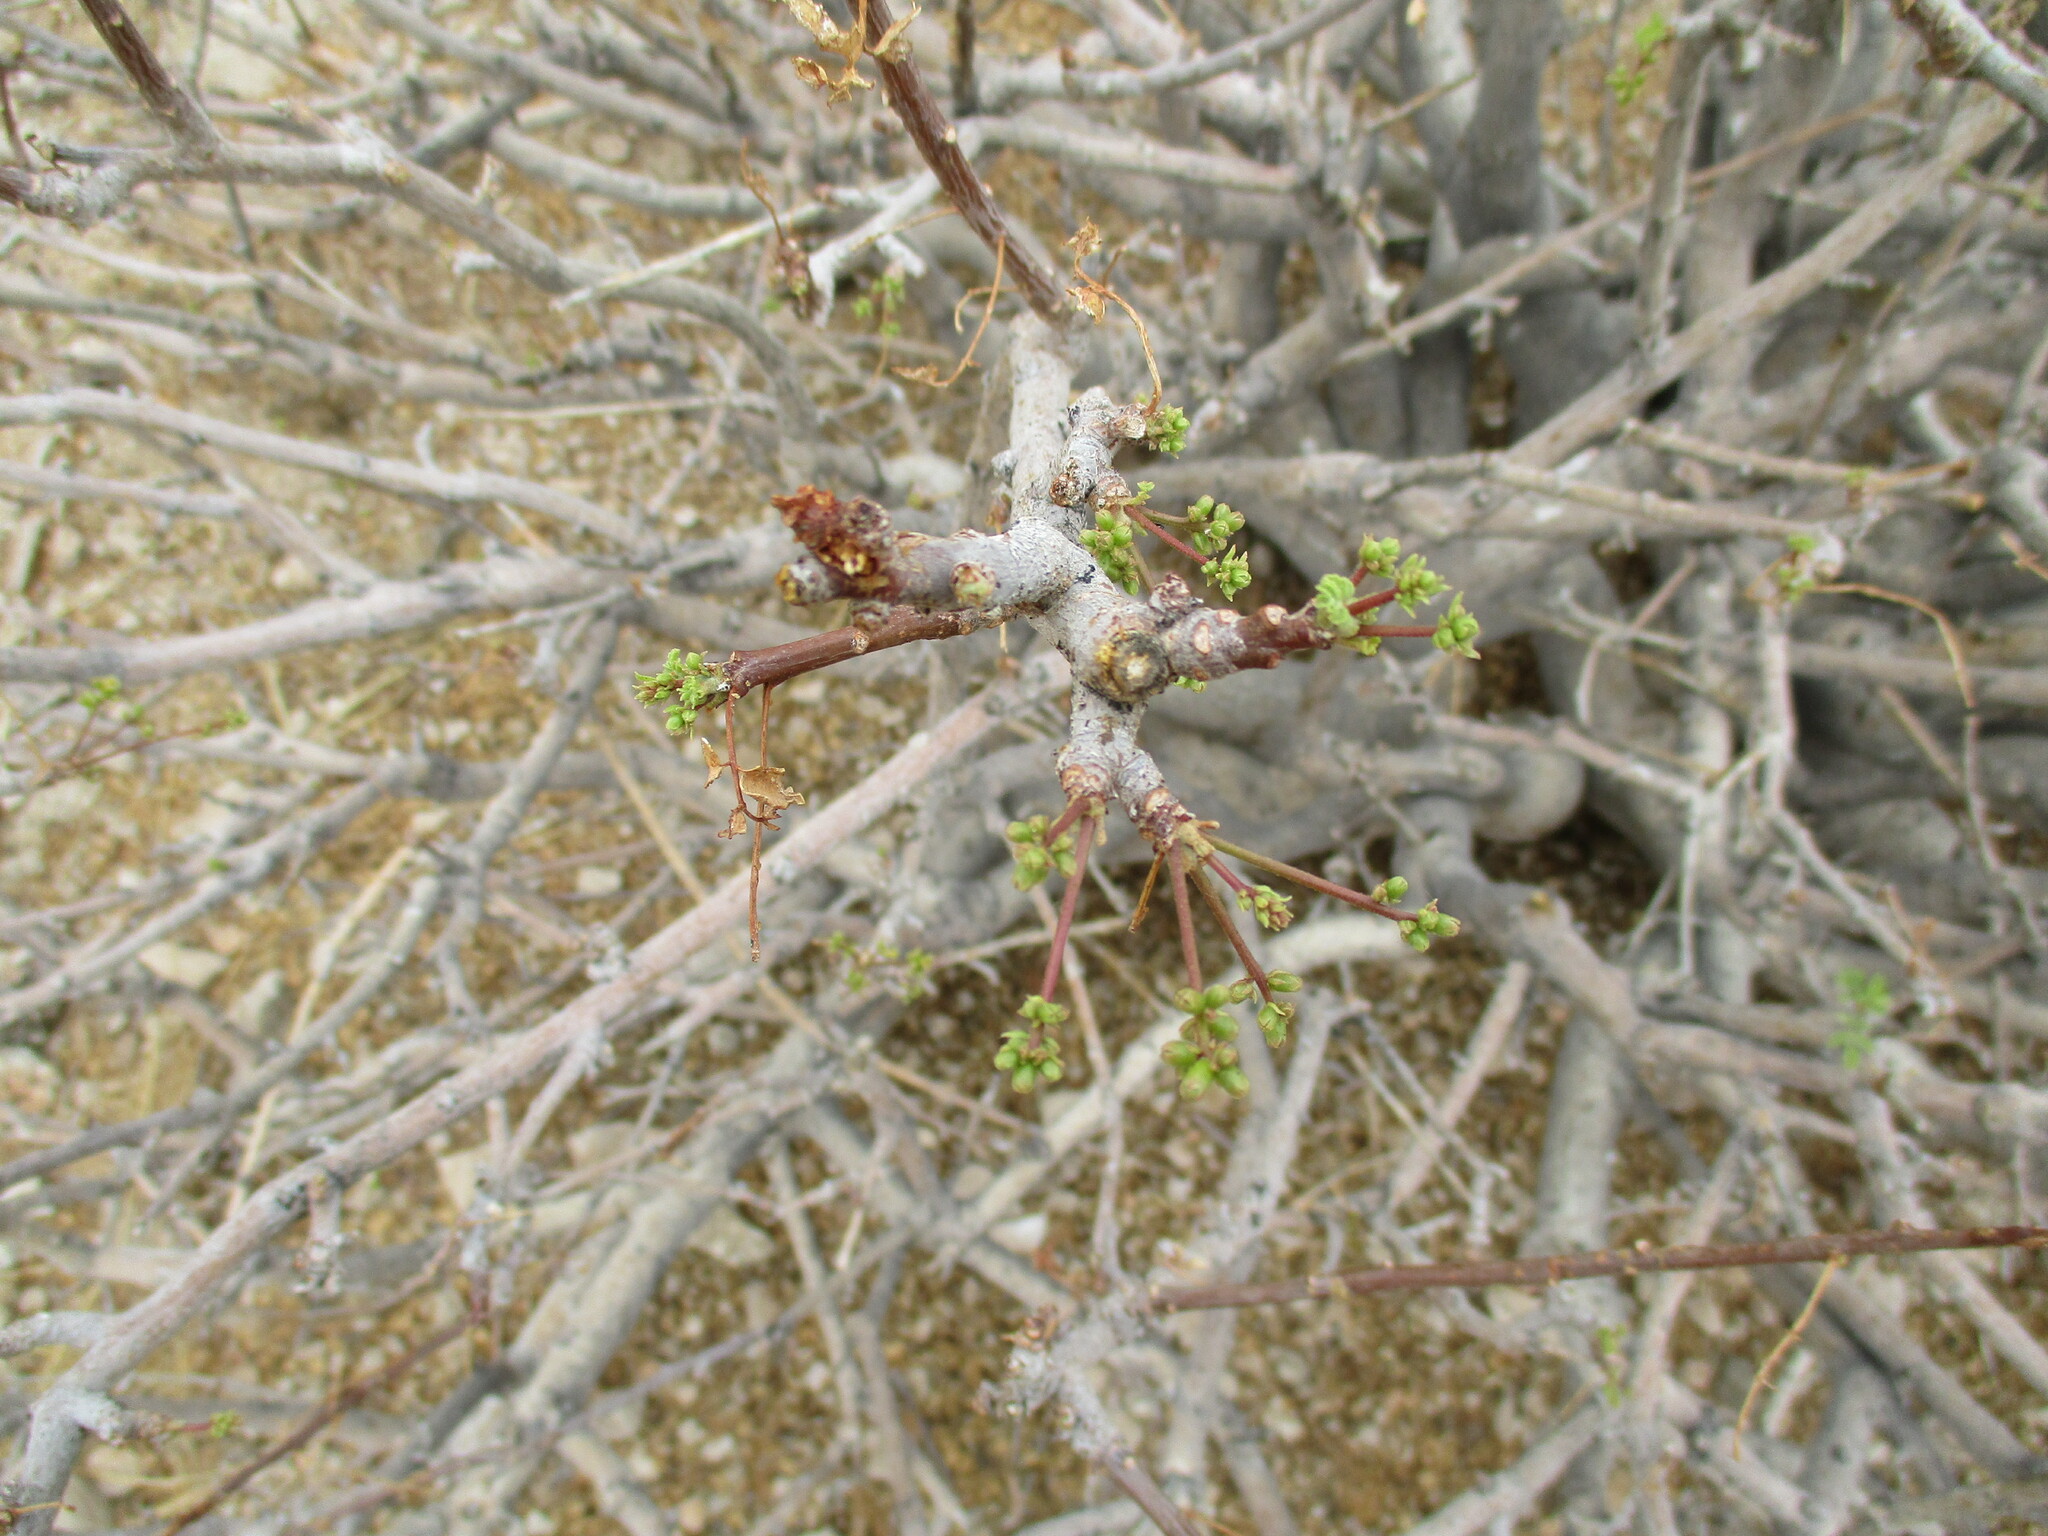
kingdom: Plantae
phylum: Tracheophyta
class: Magnoliopsida
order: Sapindales
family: Burseraceae
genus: Commiphora
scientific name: Commiphora saxicola
